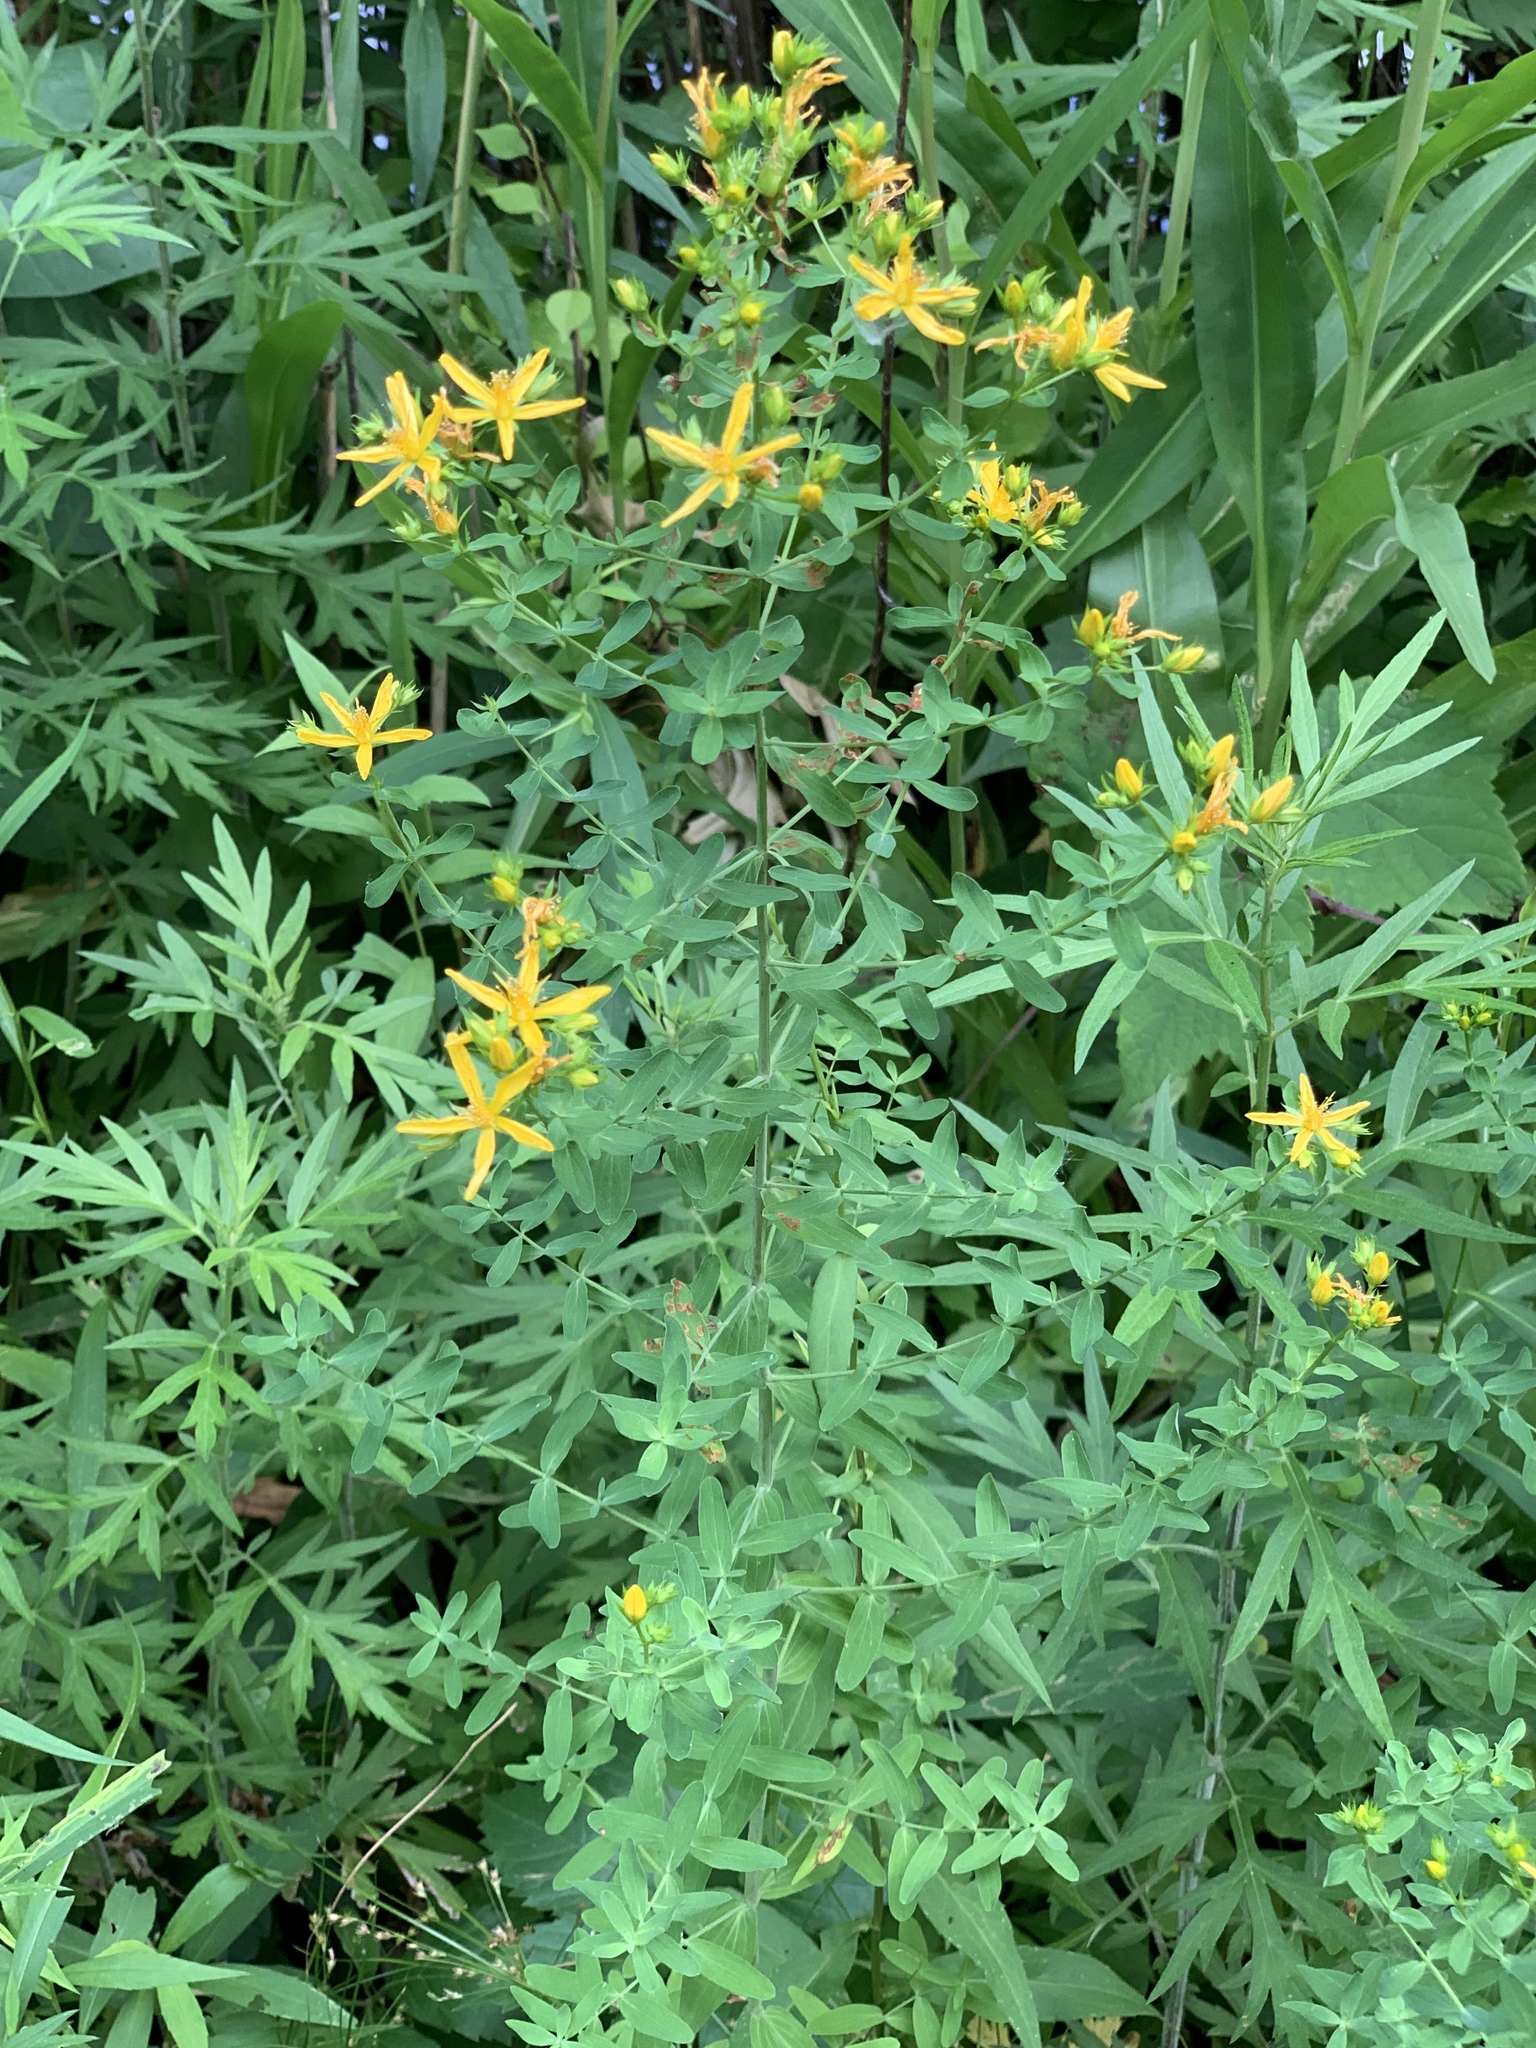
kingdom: Plantae
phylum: Tracheophyta
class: Magnoliopsida
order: Malpighiales
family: Hypericaceae
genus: Hypericum
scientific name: Hypericum perforatum
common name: Common st. johnswort
